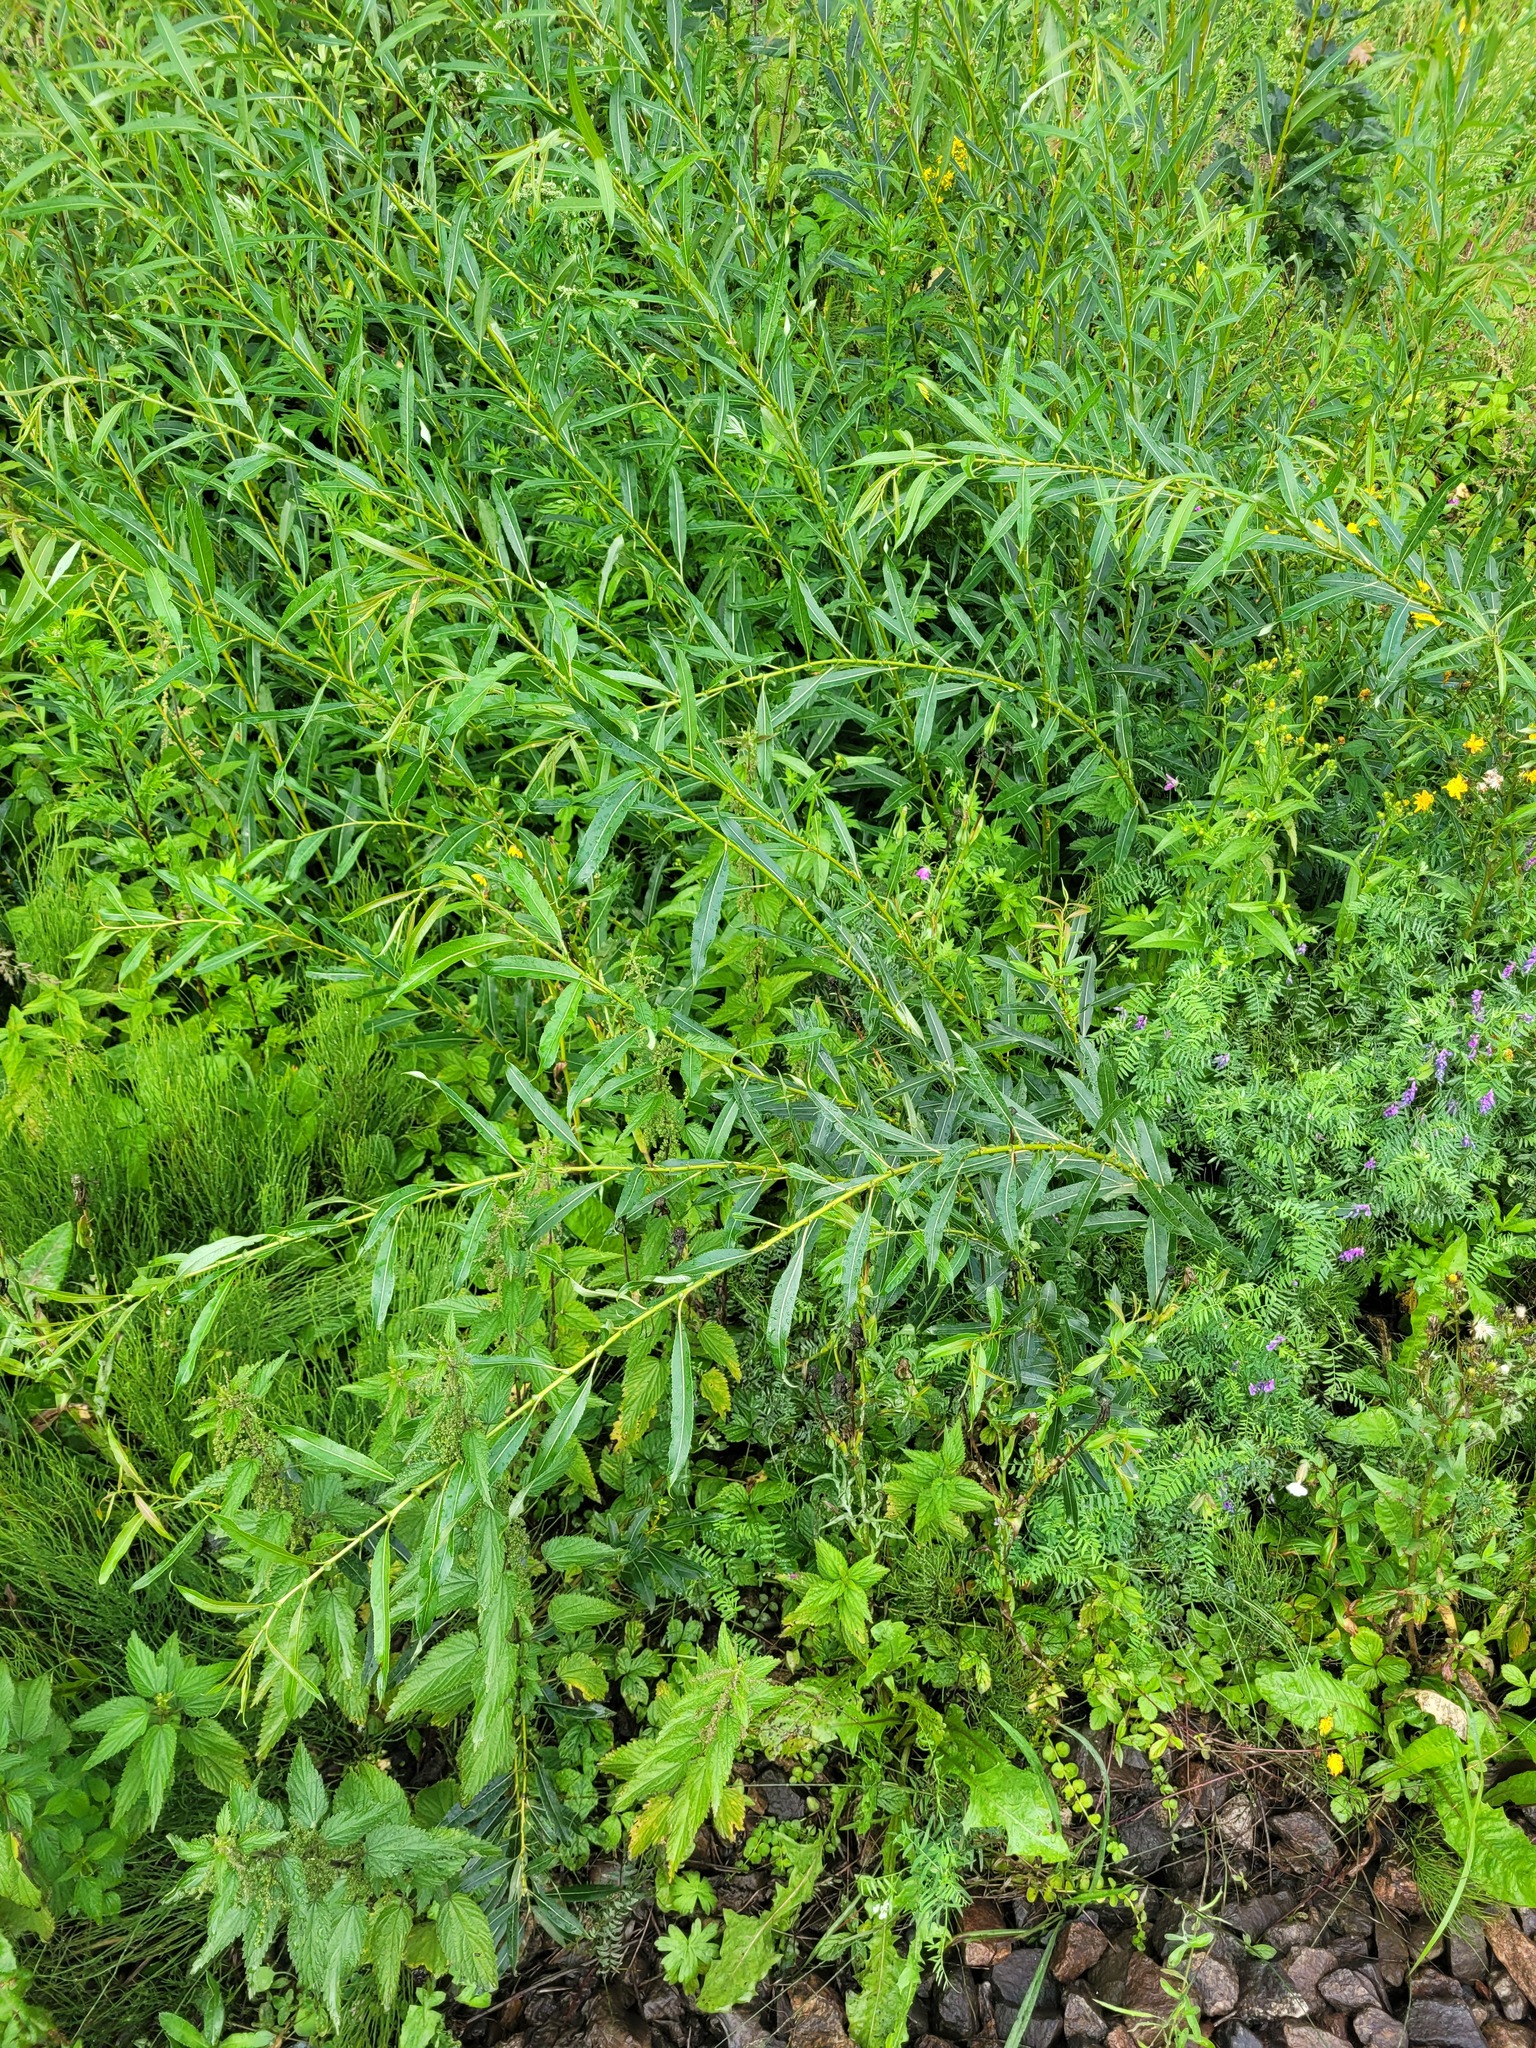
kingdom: Plantae
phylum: Tracheophyta
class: Magnoliopsida
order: Malpighiales
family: Salicaceae
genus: Salix
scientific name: Salix triandra
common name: Almond willow
